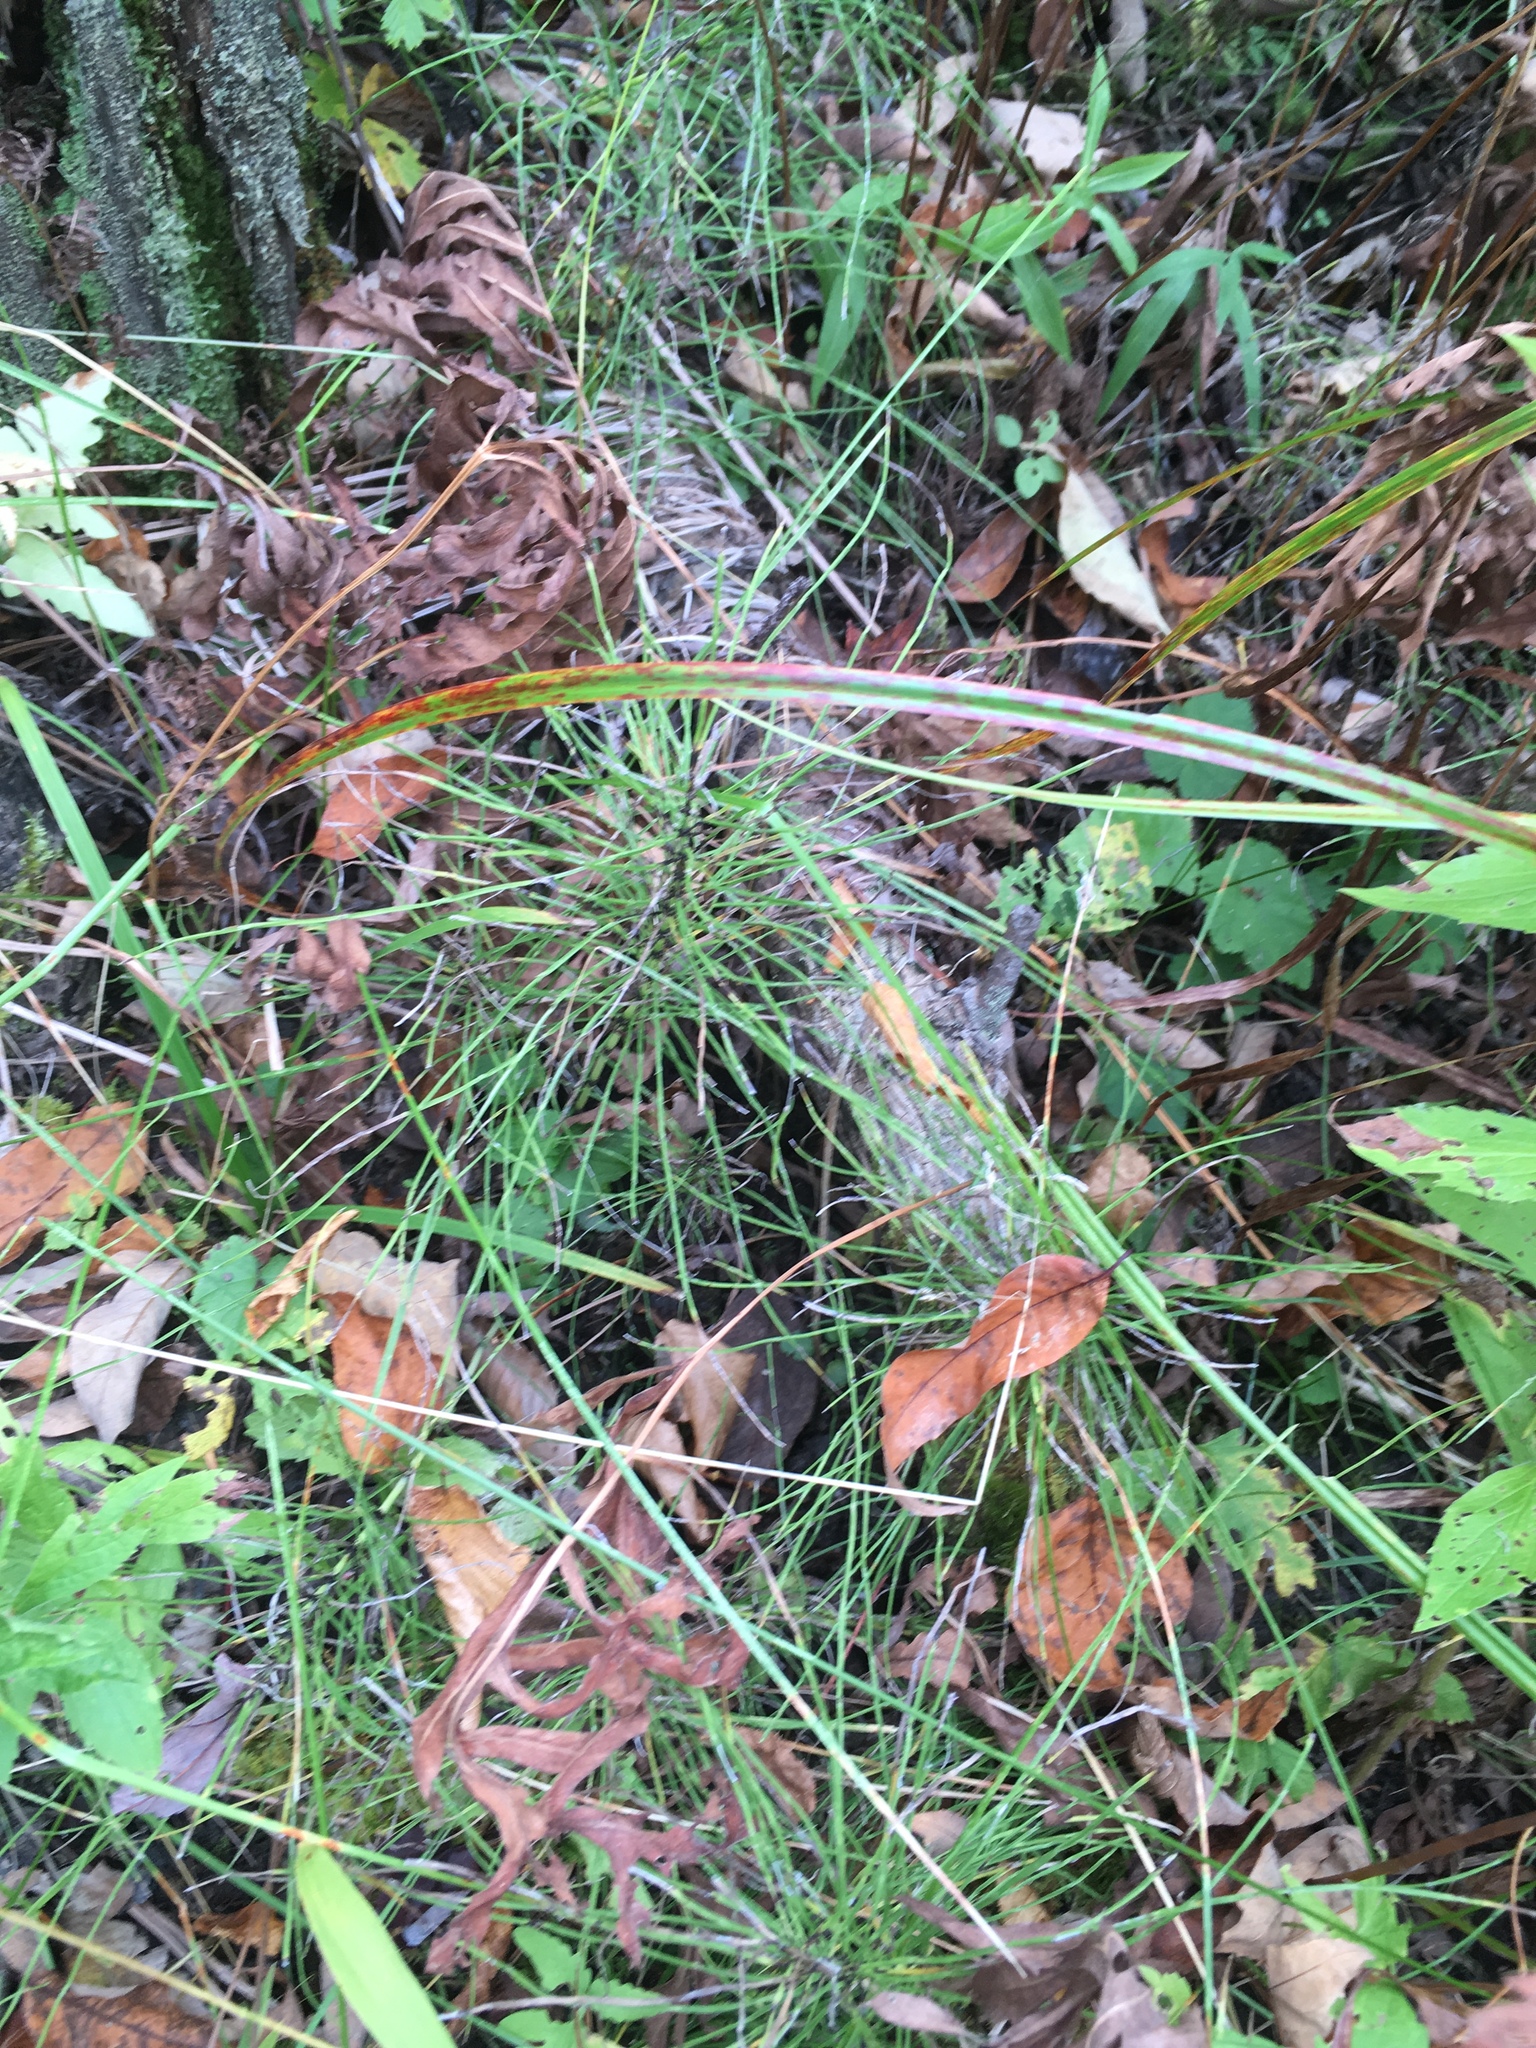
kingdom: Plantae
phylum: Tracheophyta
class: Polypodiopsida
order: Equisetales
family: Equisetaceae
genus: Equisetum
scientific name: Equisetum arvense
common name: Field horsetail
